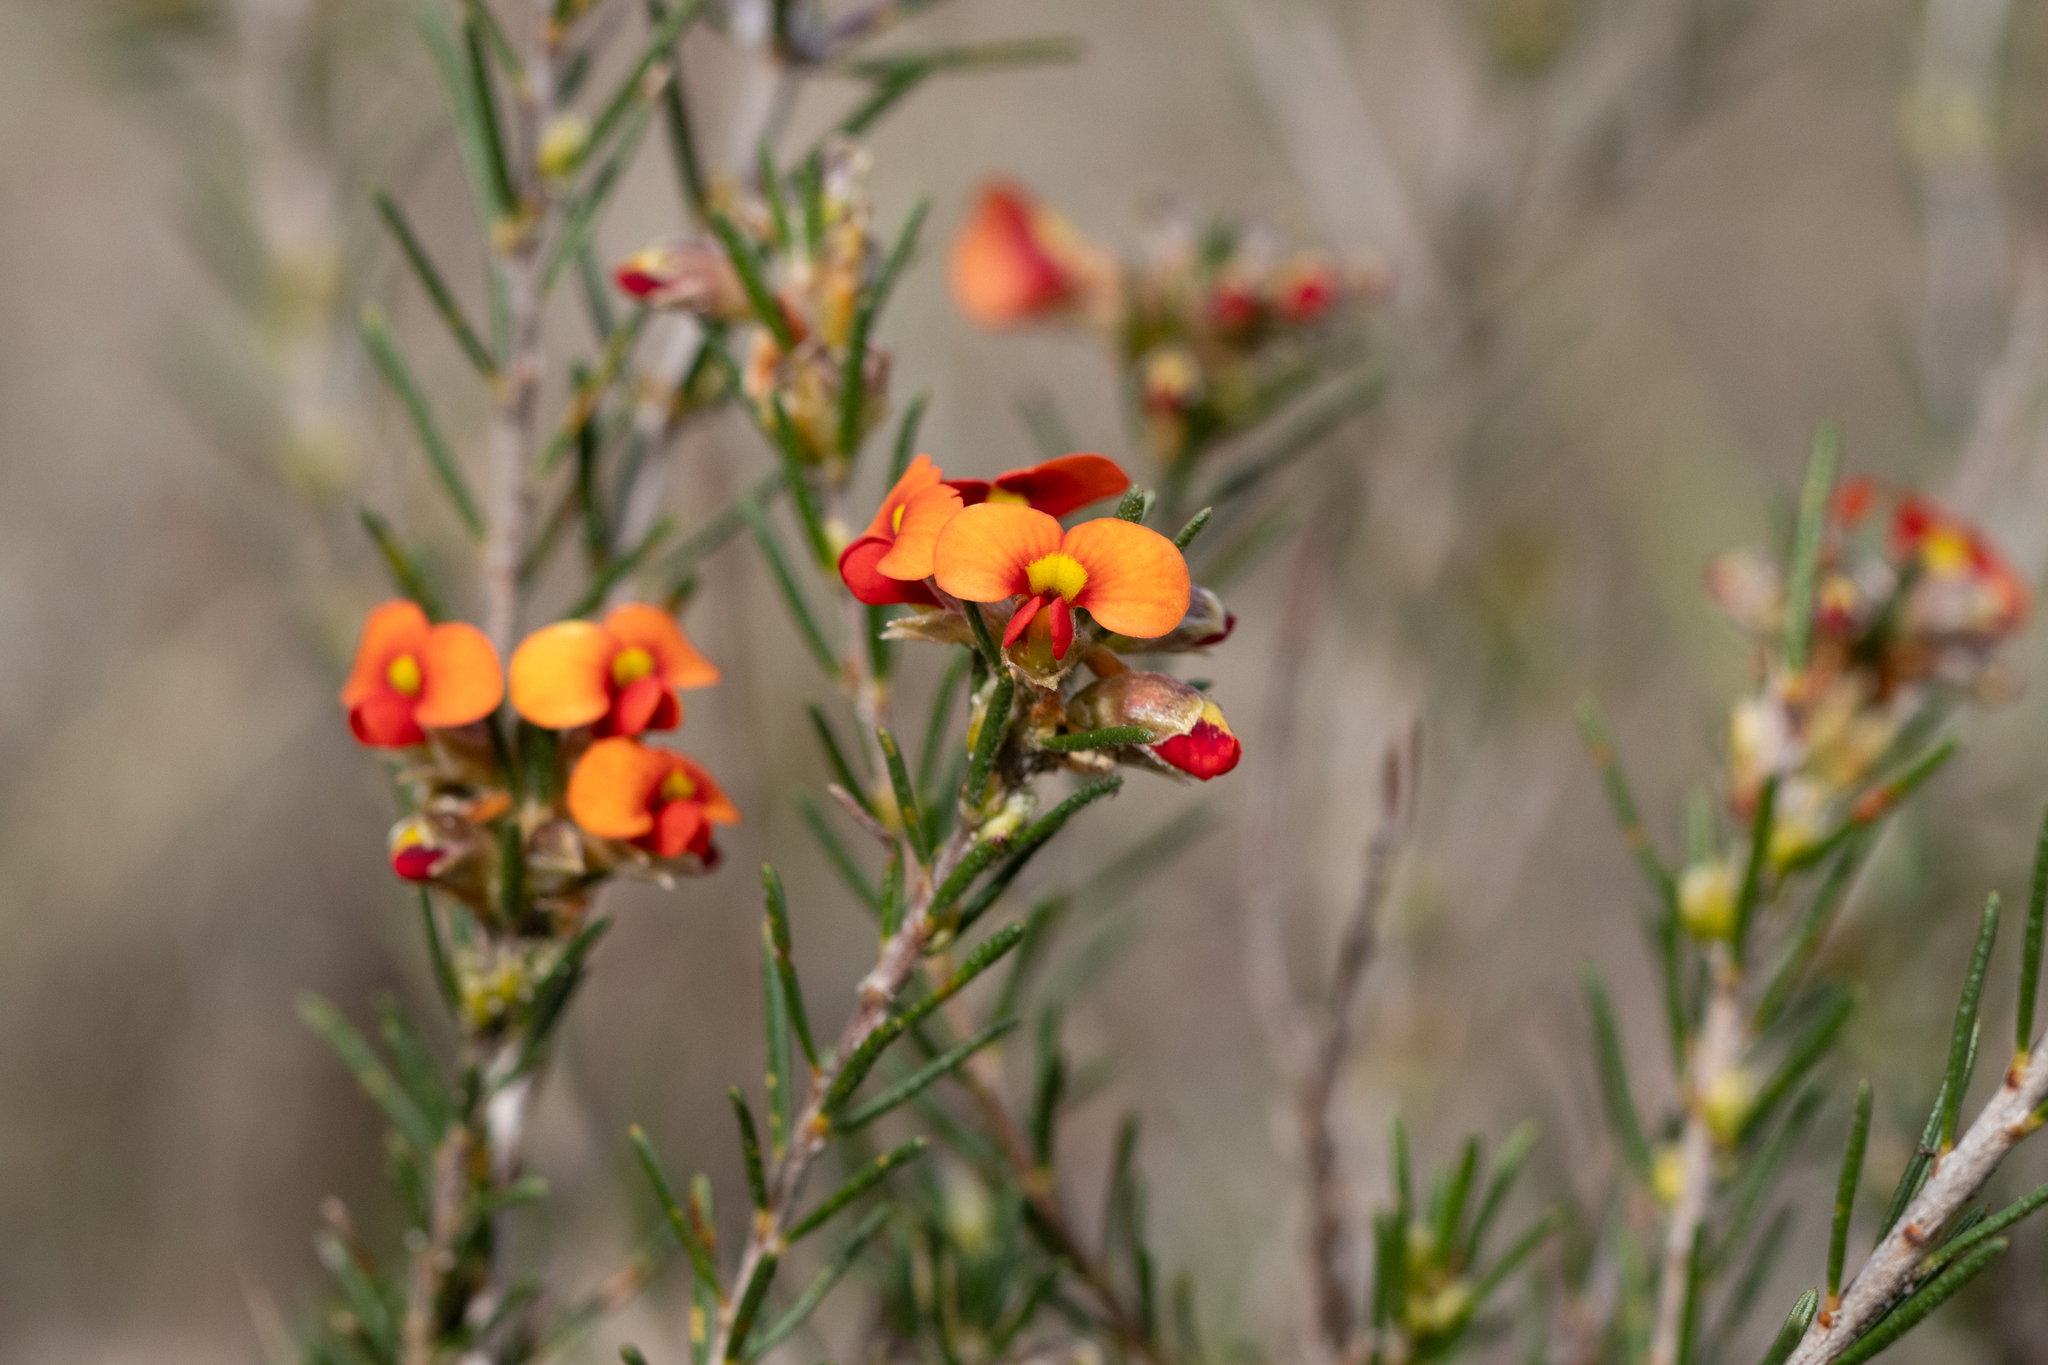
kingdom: Plantae
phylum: Tracheophyta
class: Magnoliopsida
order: Fabales
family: Fabaceae
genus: Dillwynia
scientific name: Dillwynia sericea
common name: Showy parrot-pea
